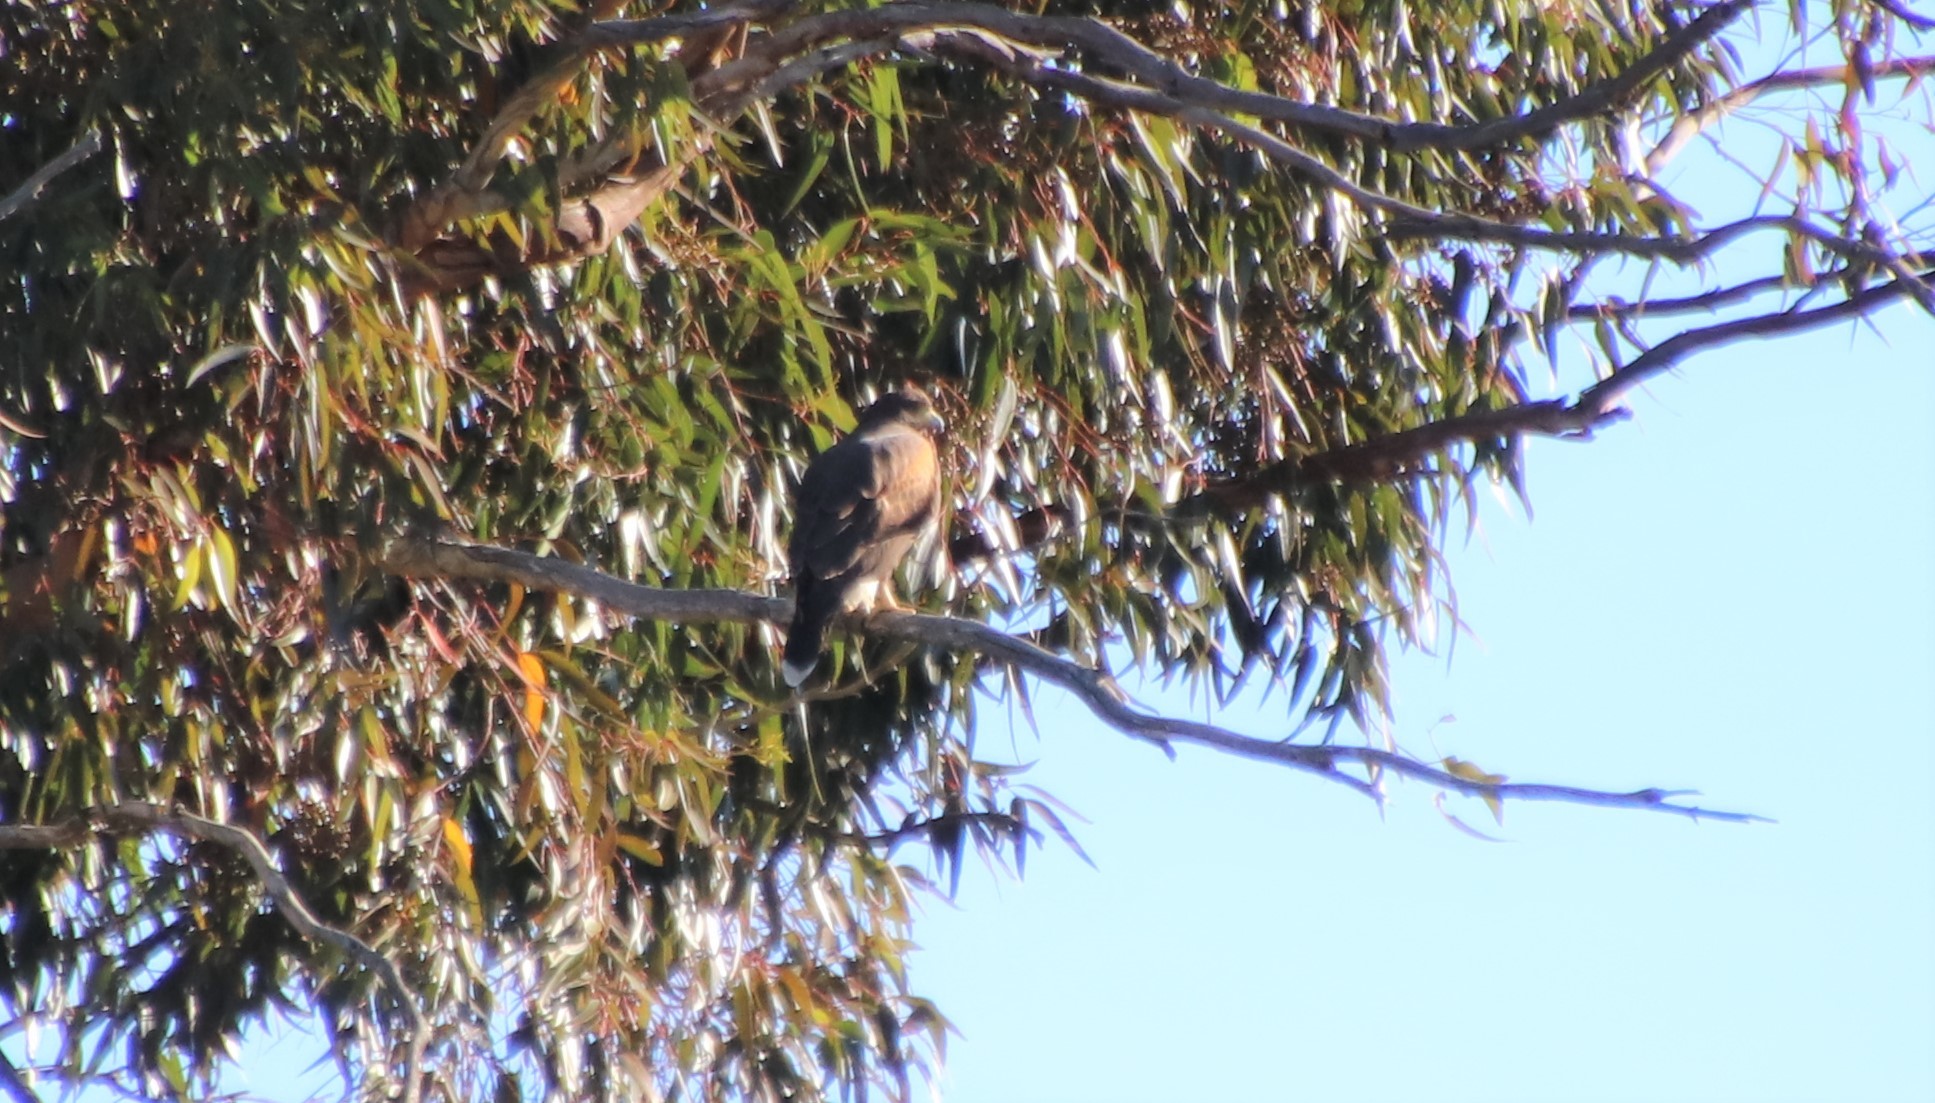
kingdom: Animalia
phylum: Chordata
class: Aves
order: Accipitriformes
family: Accipitridae
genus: Parabuteo
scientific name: Parabuteo unicinctus
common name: Harris's hawk
